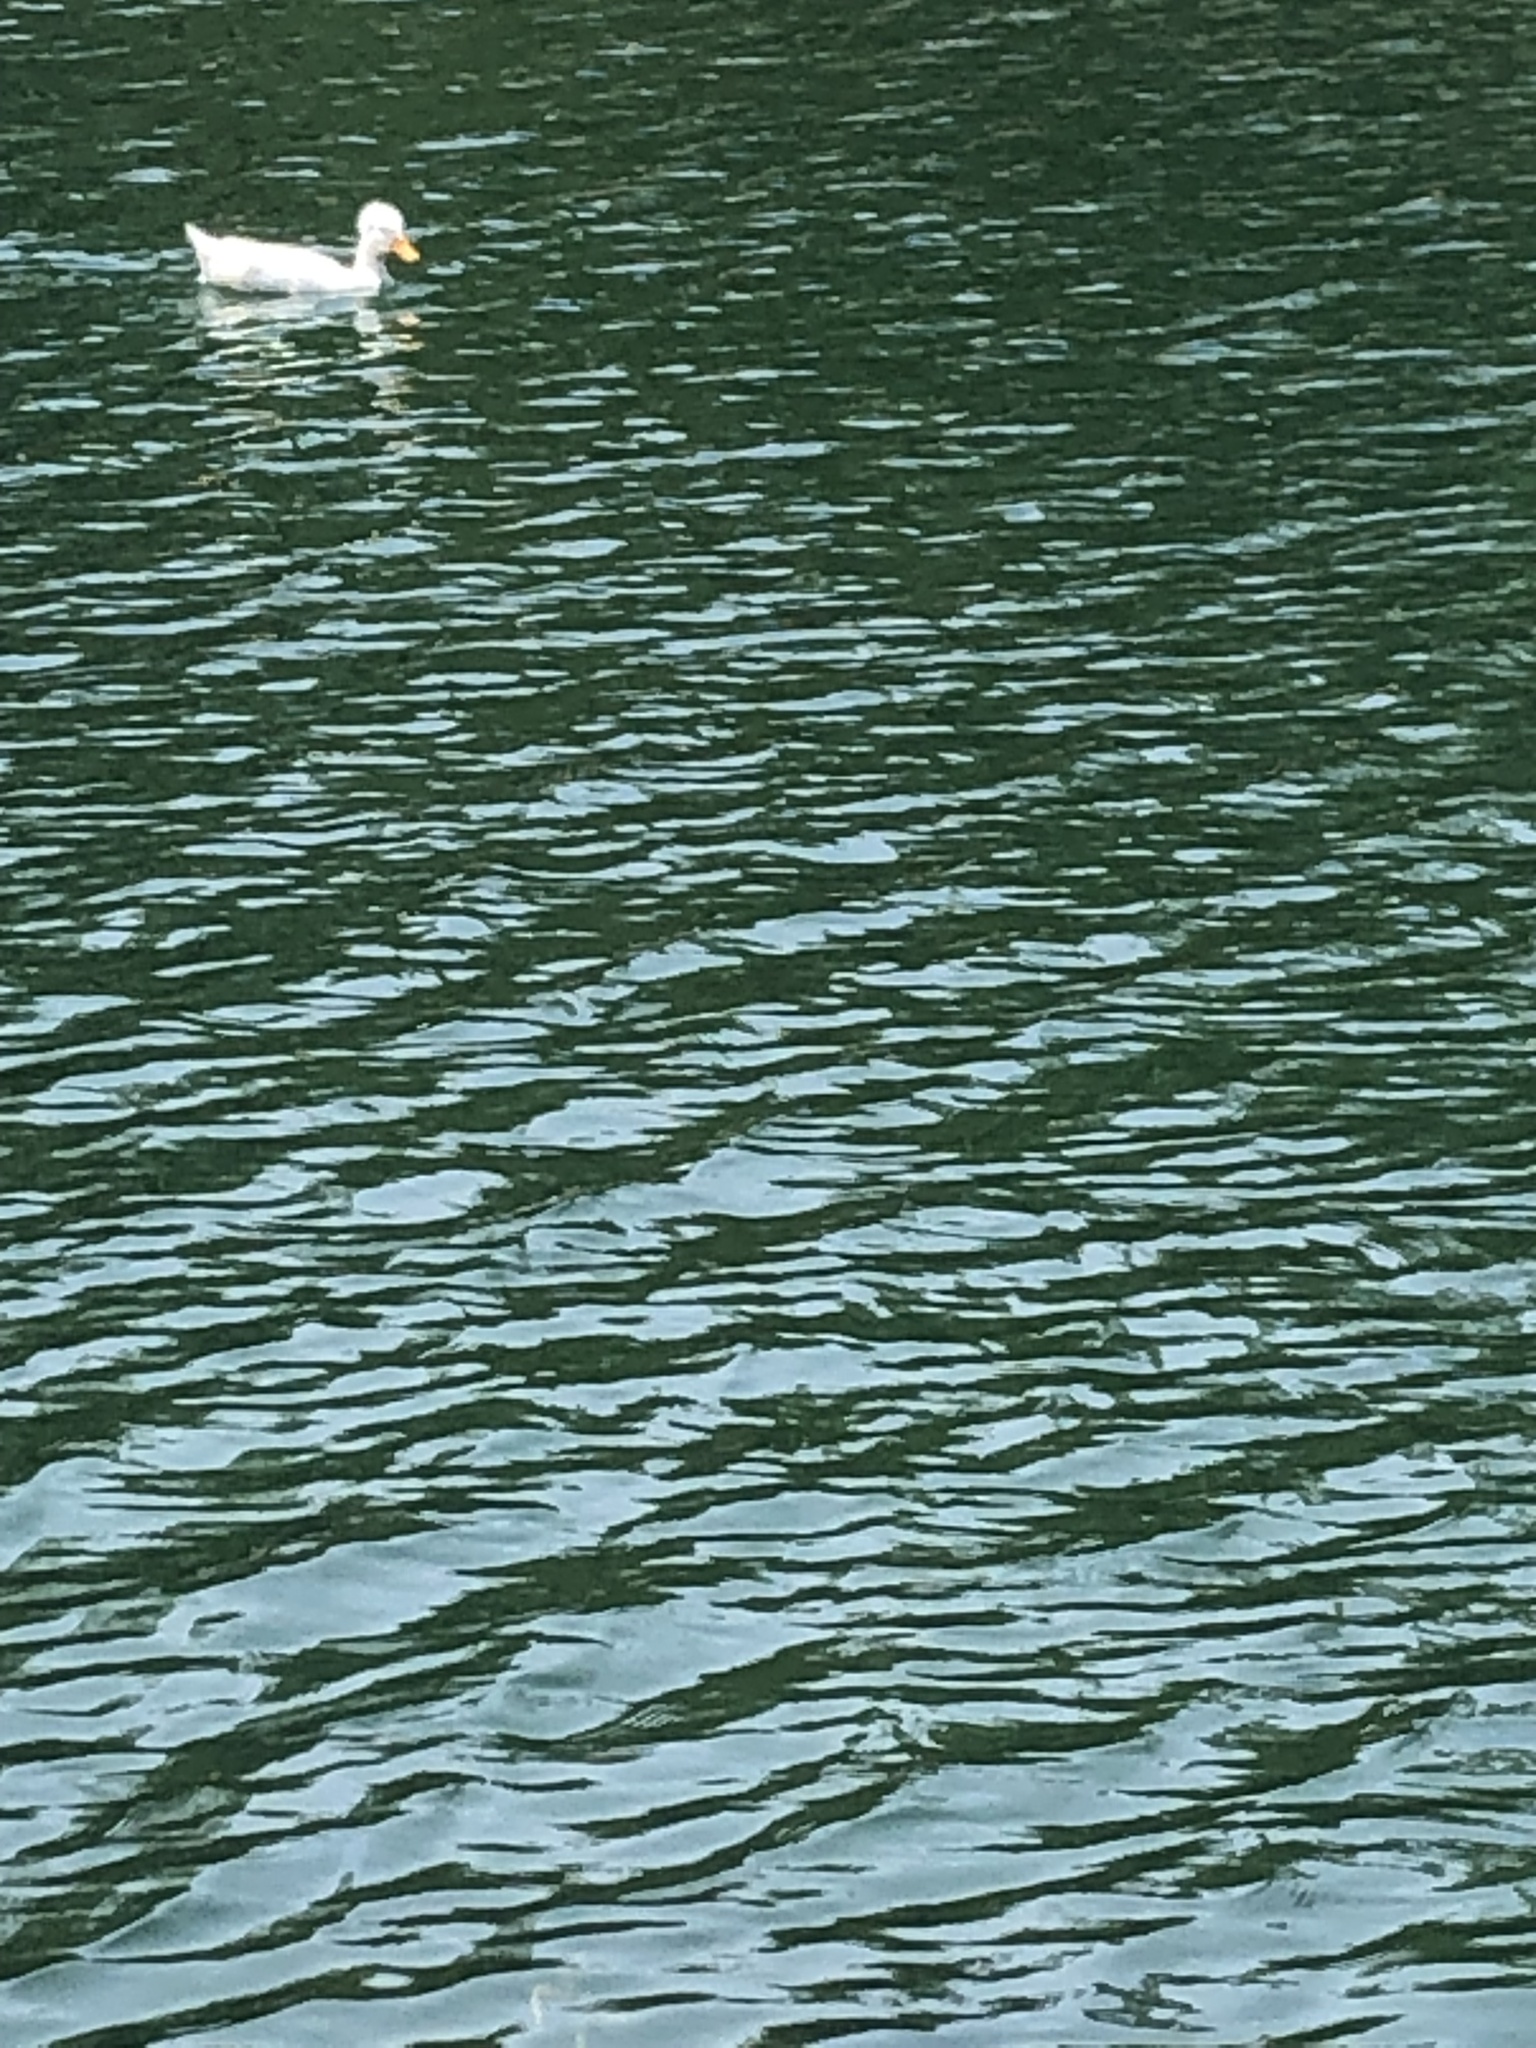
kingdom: Animalia
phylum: Chordata
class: Aves
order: Anseriformes
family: Anatidae
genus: Anas
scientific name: Anas platyrhynchos
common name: Mallard
